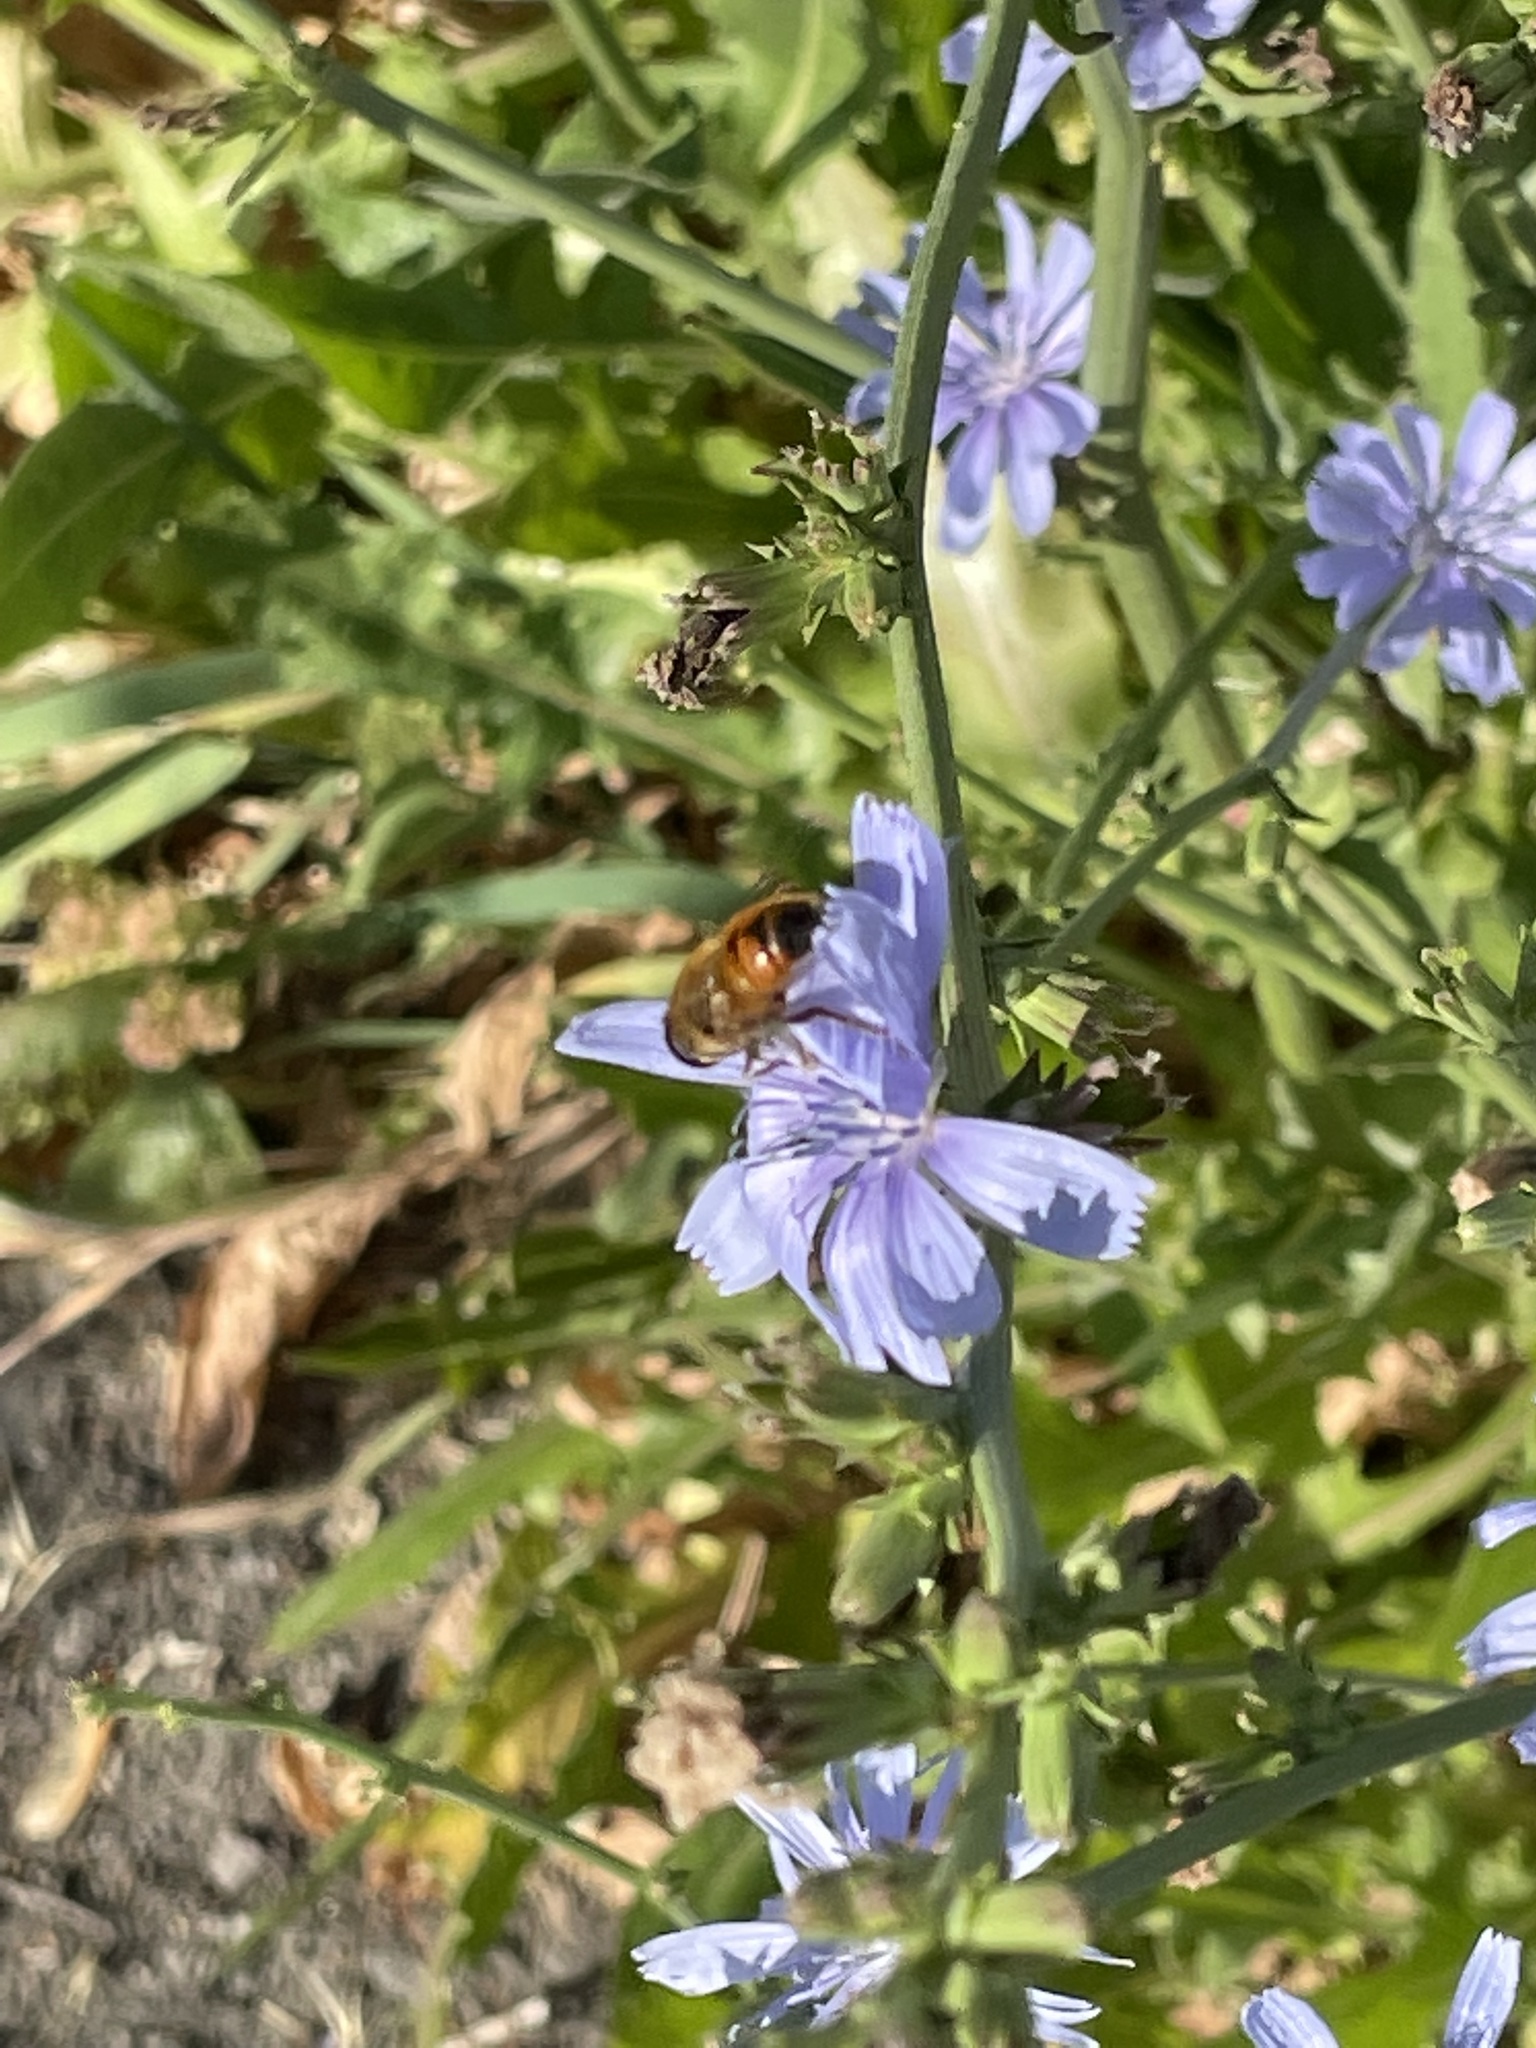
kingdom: Animalia
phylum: Arthropoda
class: Insecta
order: Diptera
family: Syrphidae
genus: Eristalis
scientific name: Eristalis tenax
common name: Drone fly
